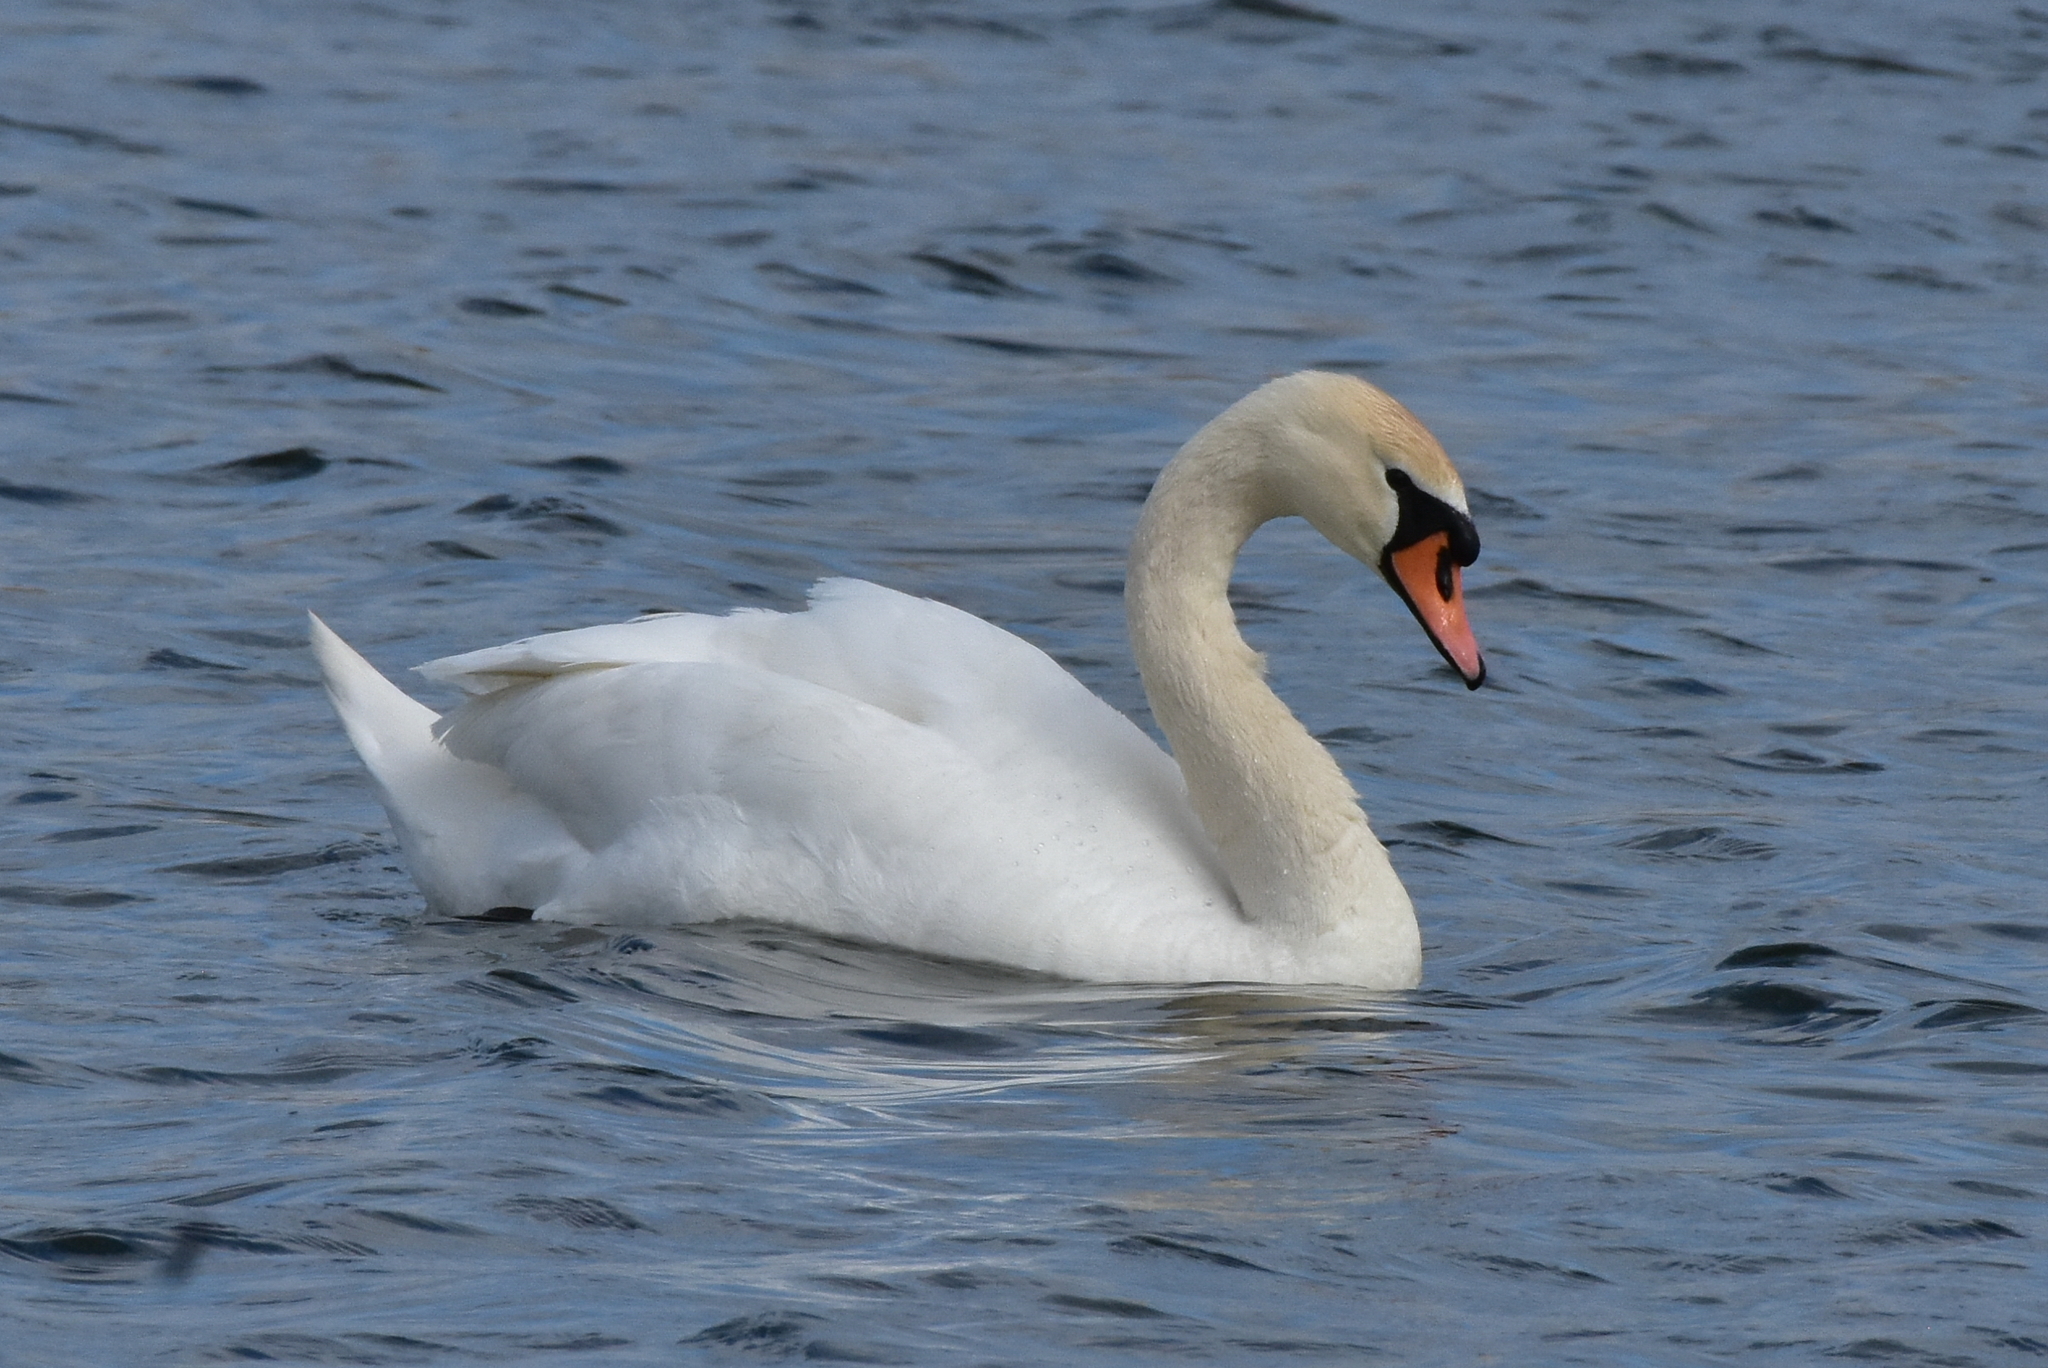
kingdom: Animalia
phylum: Chordata
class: Aves
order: Anseriformes
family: Anatidae
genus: Cygnus
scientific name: Cygnus olor
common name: Mute swan
